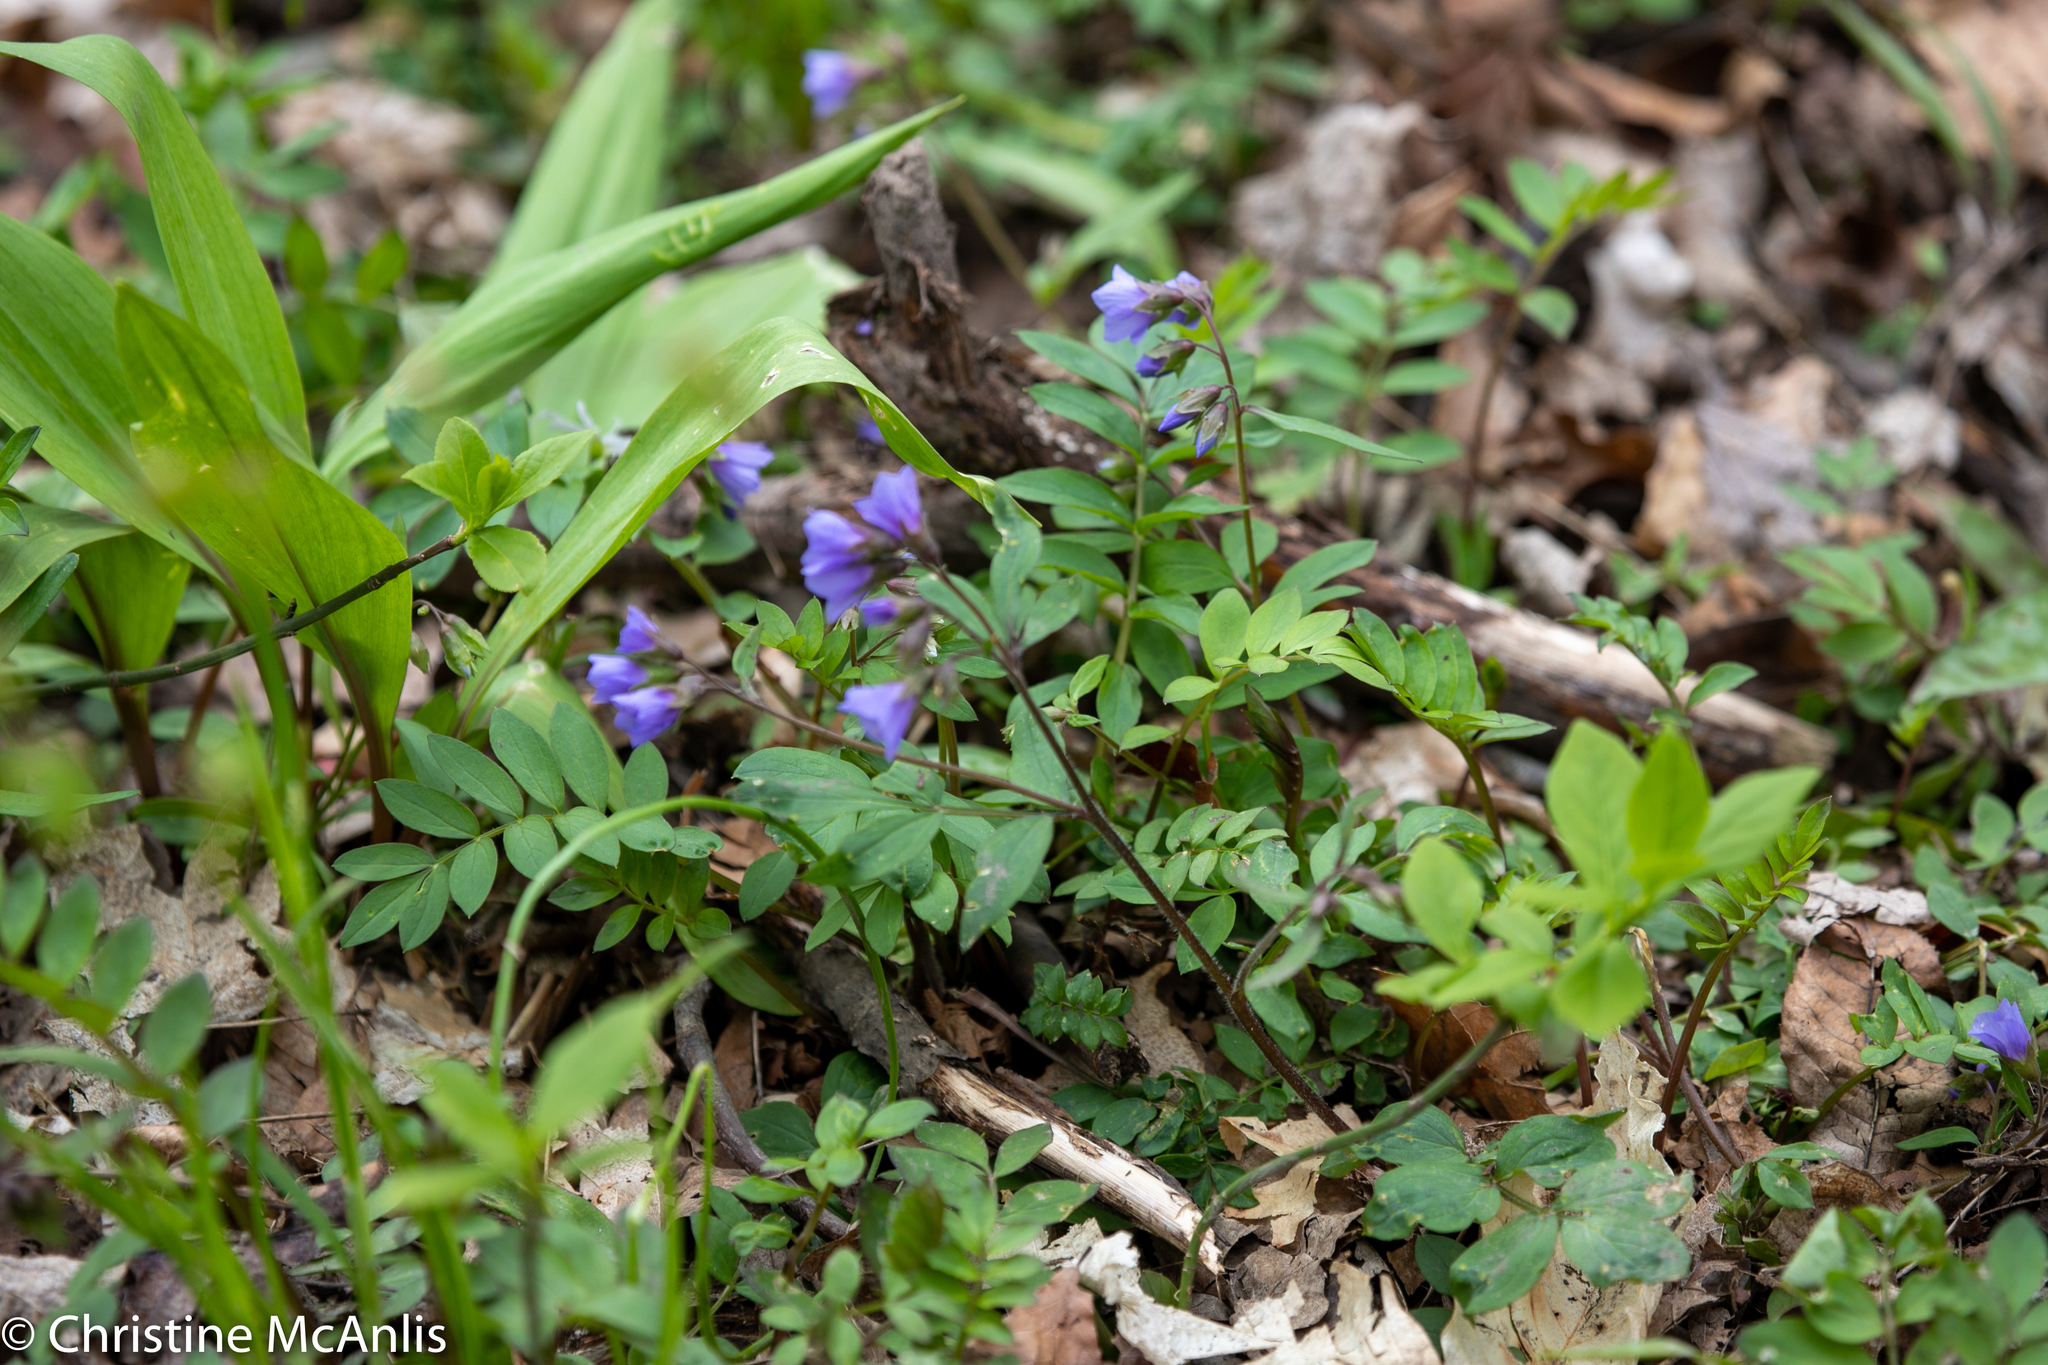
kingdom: Plantae
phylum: Tracheophyta
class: Magnoliopsida
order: Ericales
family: Polemoniaceae
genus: Polemonium
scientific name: Polemonium reptans
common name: Creeping jacob's-ladder
